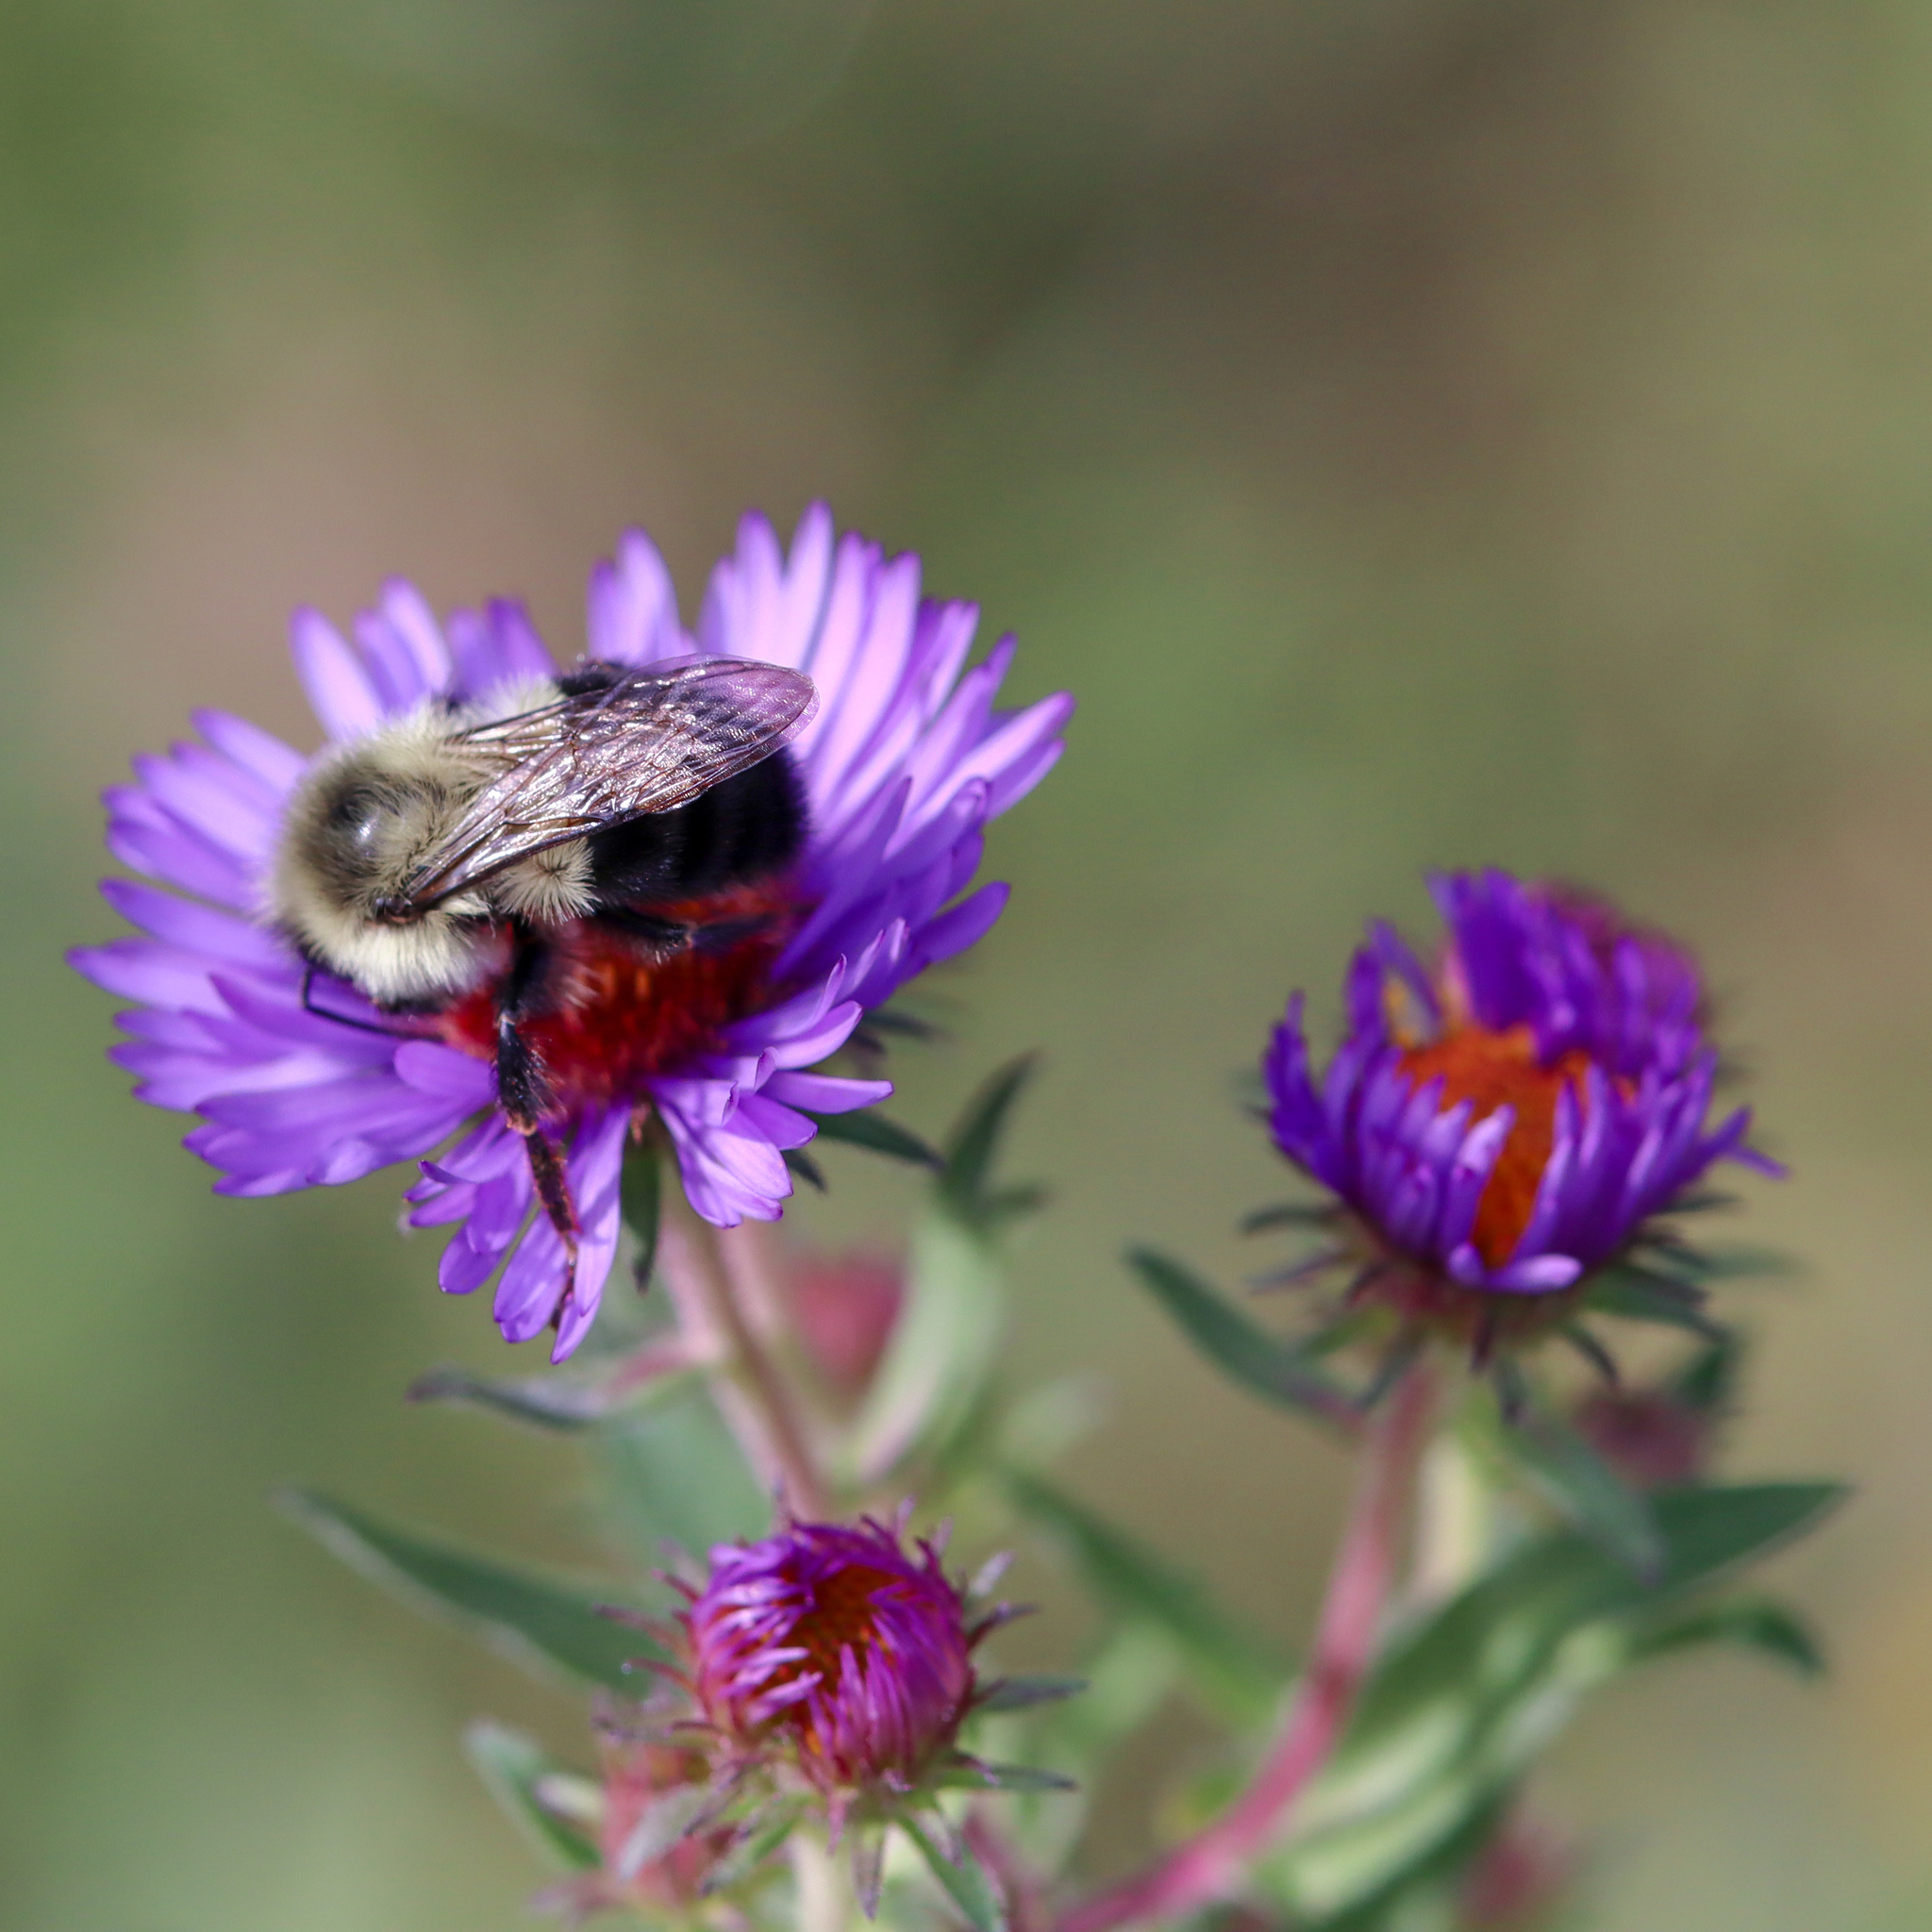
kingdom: Animalia
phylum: Arthropoda
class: Insecta
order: Hymenoptera
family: Apidae
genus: Bombus
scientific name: Bombus impatiens
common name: Common eastern bumble bee
